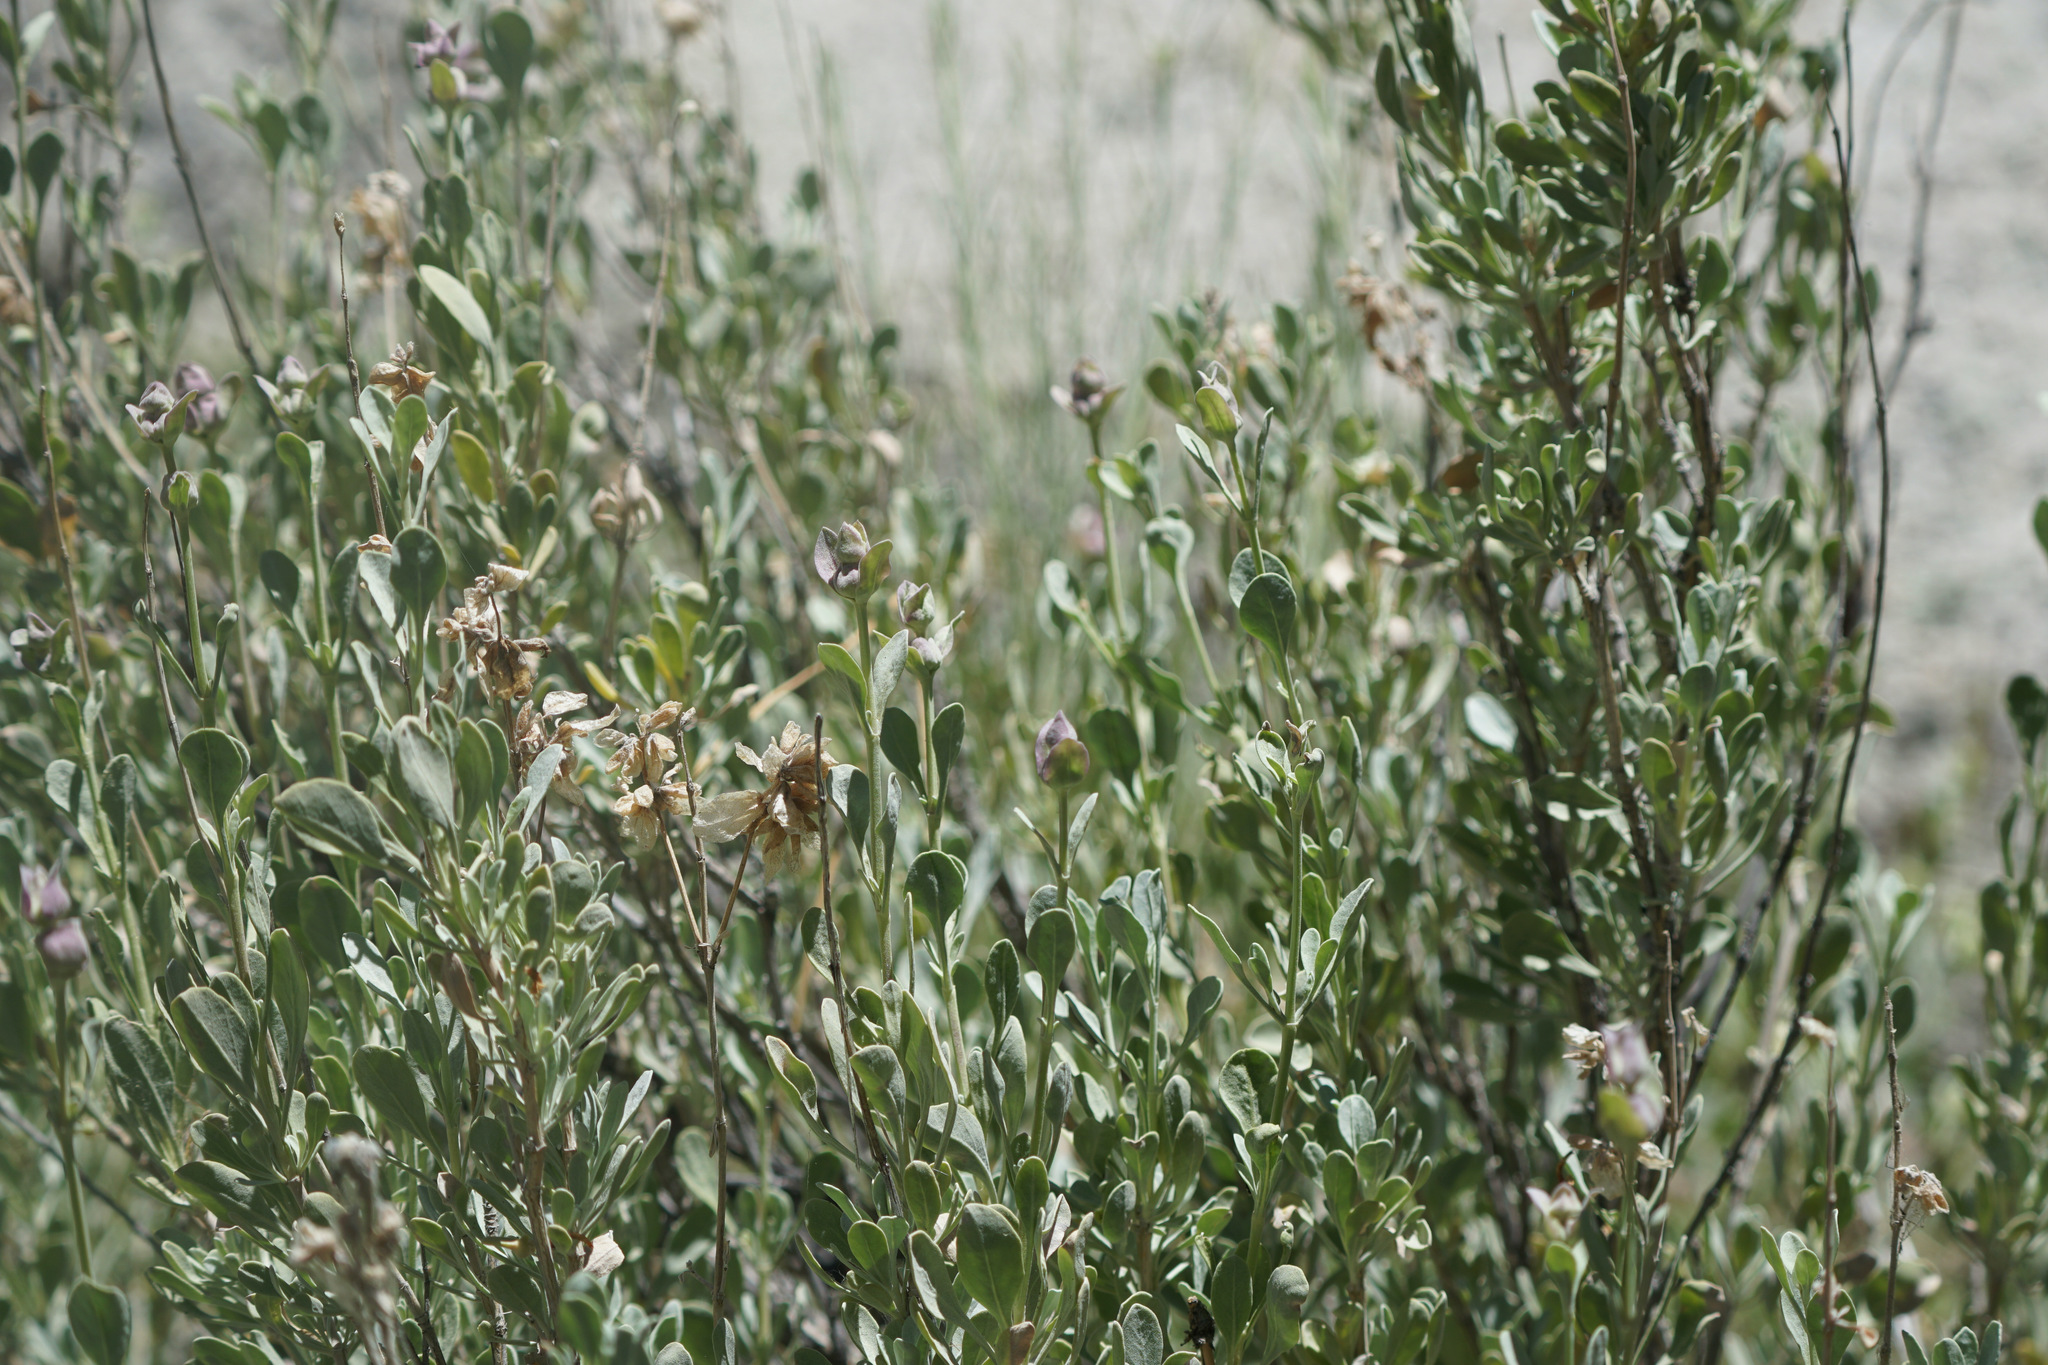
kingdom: Plantae
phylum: Tracheophyta
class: Magnoliopsida
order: Lamiales
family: Lamiaceae
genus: Salvia
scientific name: Salvia pachyphylla
